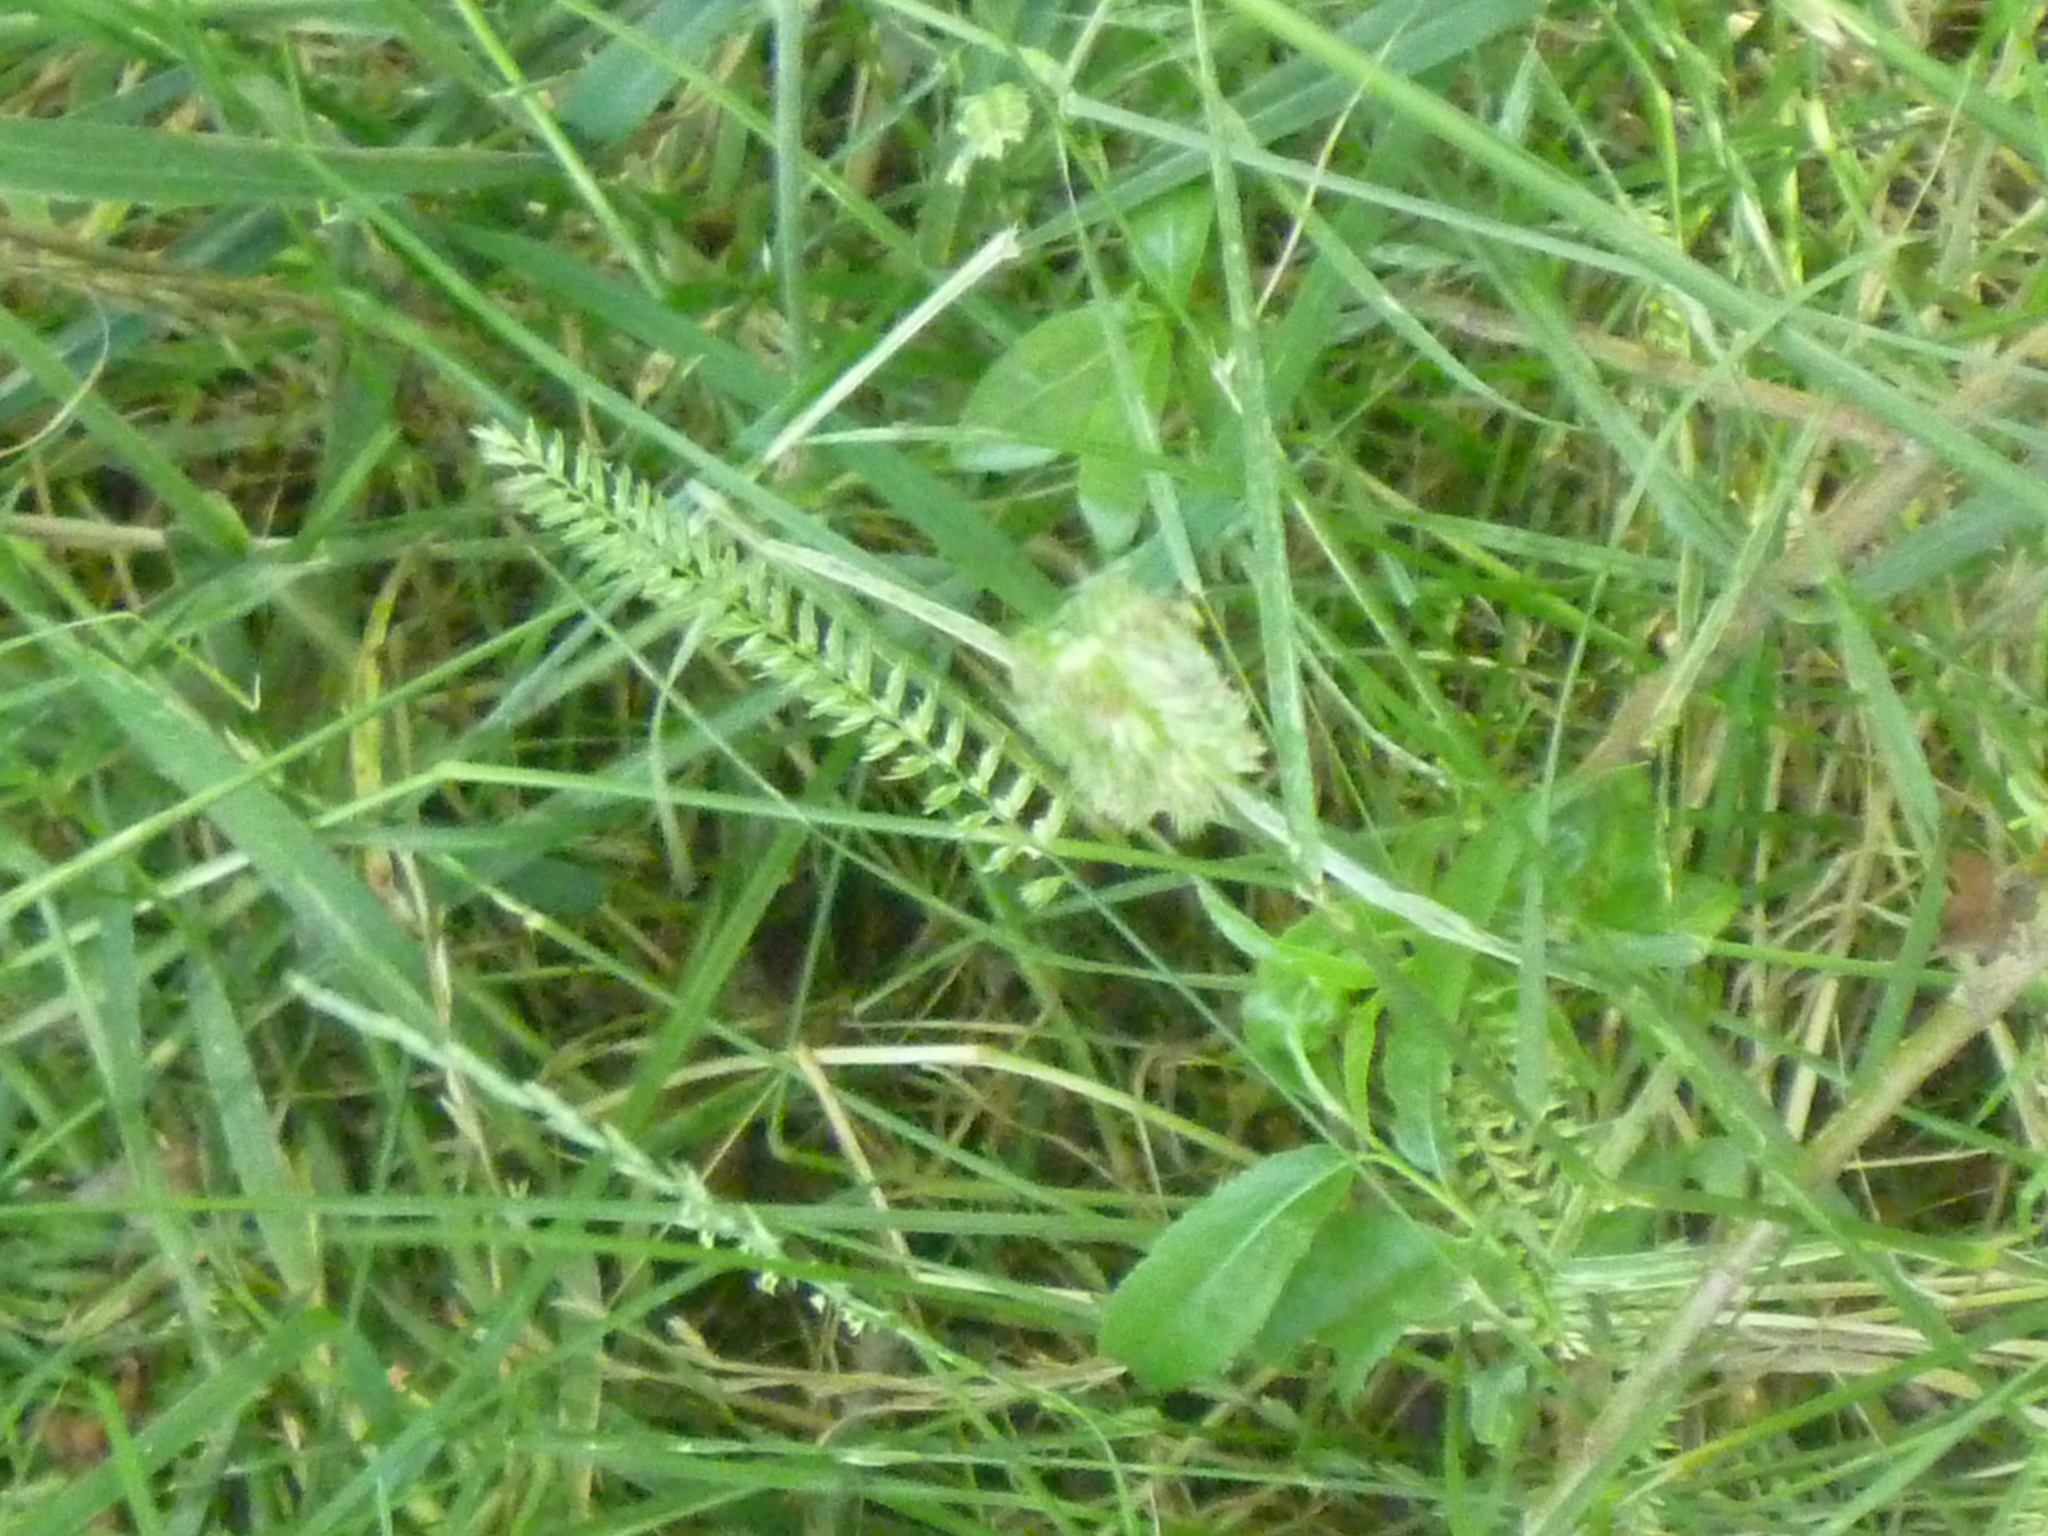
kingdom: Plantae
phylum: Tracheophyta
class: Liliopsida
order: Poales
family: Poaceae
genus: Cynosurus
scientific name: Cynosurus cristatus
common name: Crested dog's-tail
